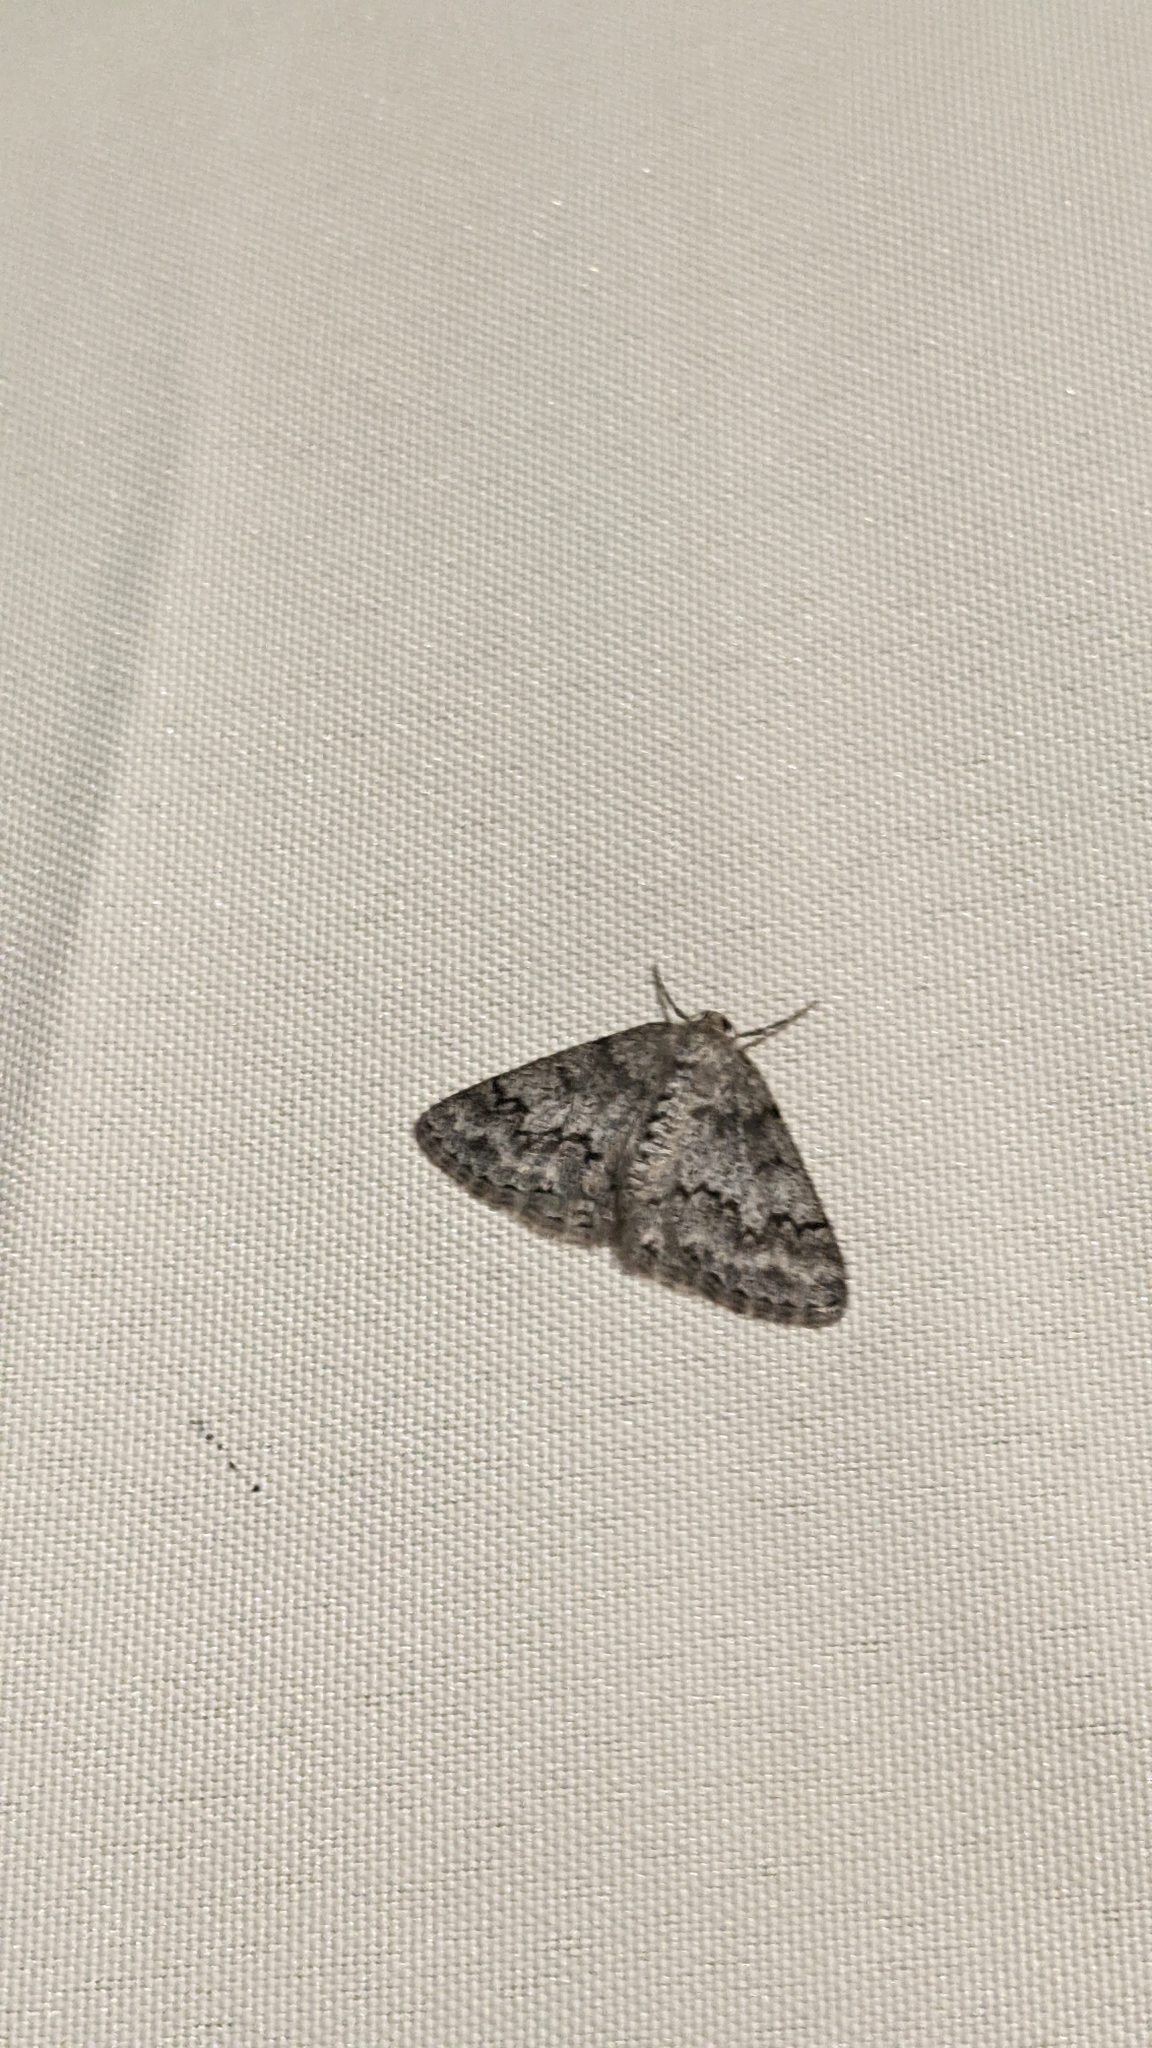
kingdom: Animalia
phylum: Arthropoda
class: Insecta
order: Lepidoptera
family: Geometridae
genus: Pseudoterpna
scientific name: Pseudoterpna coronillaria
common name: Jersey emerald
